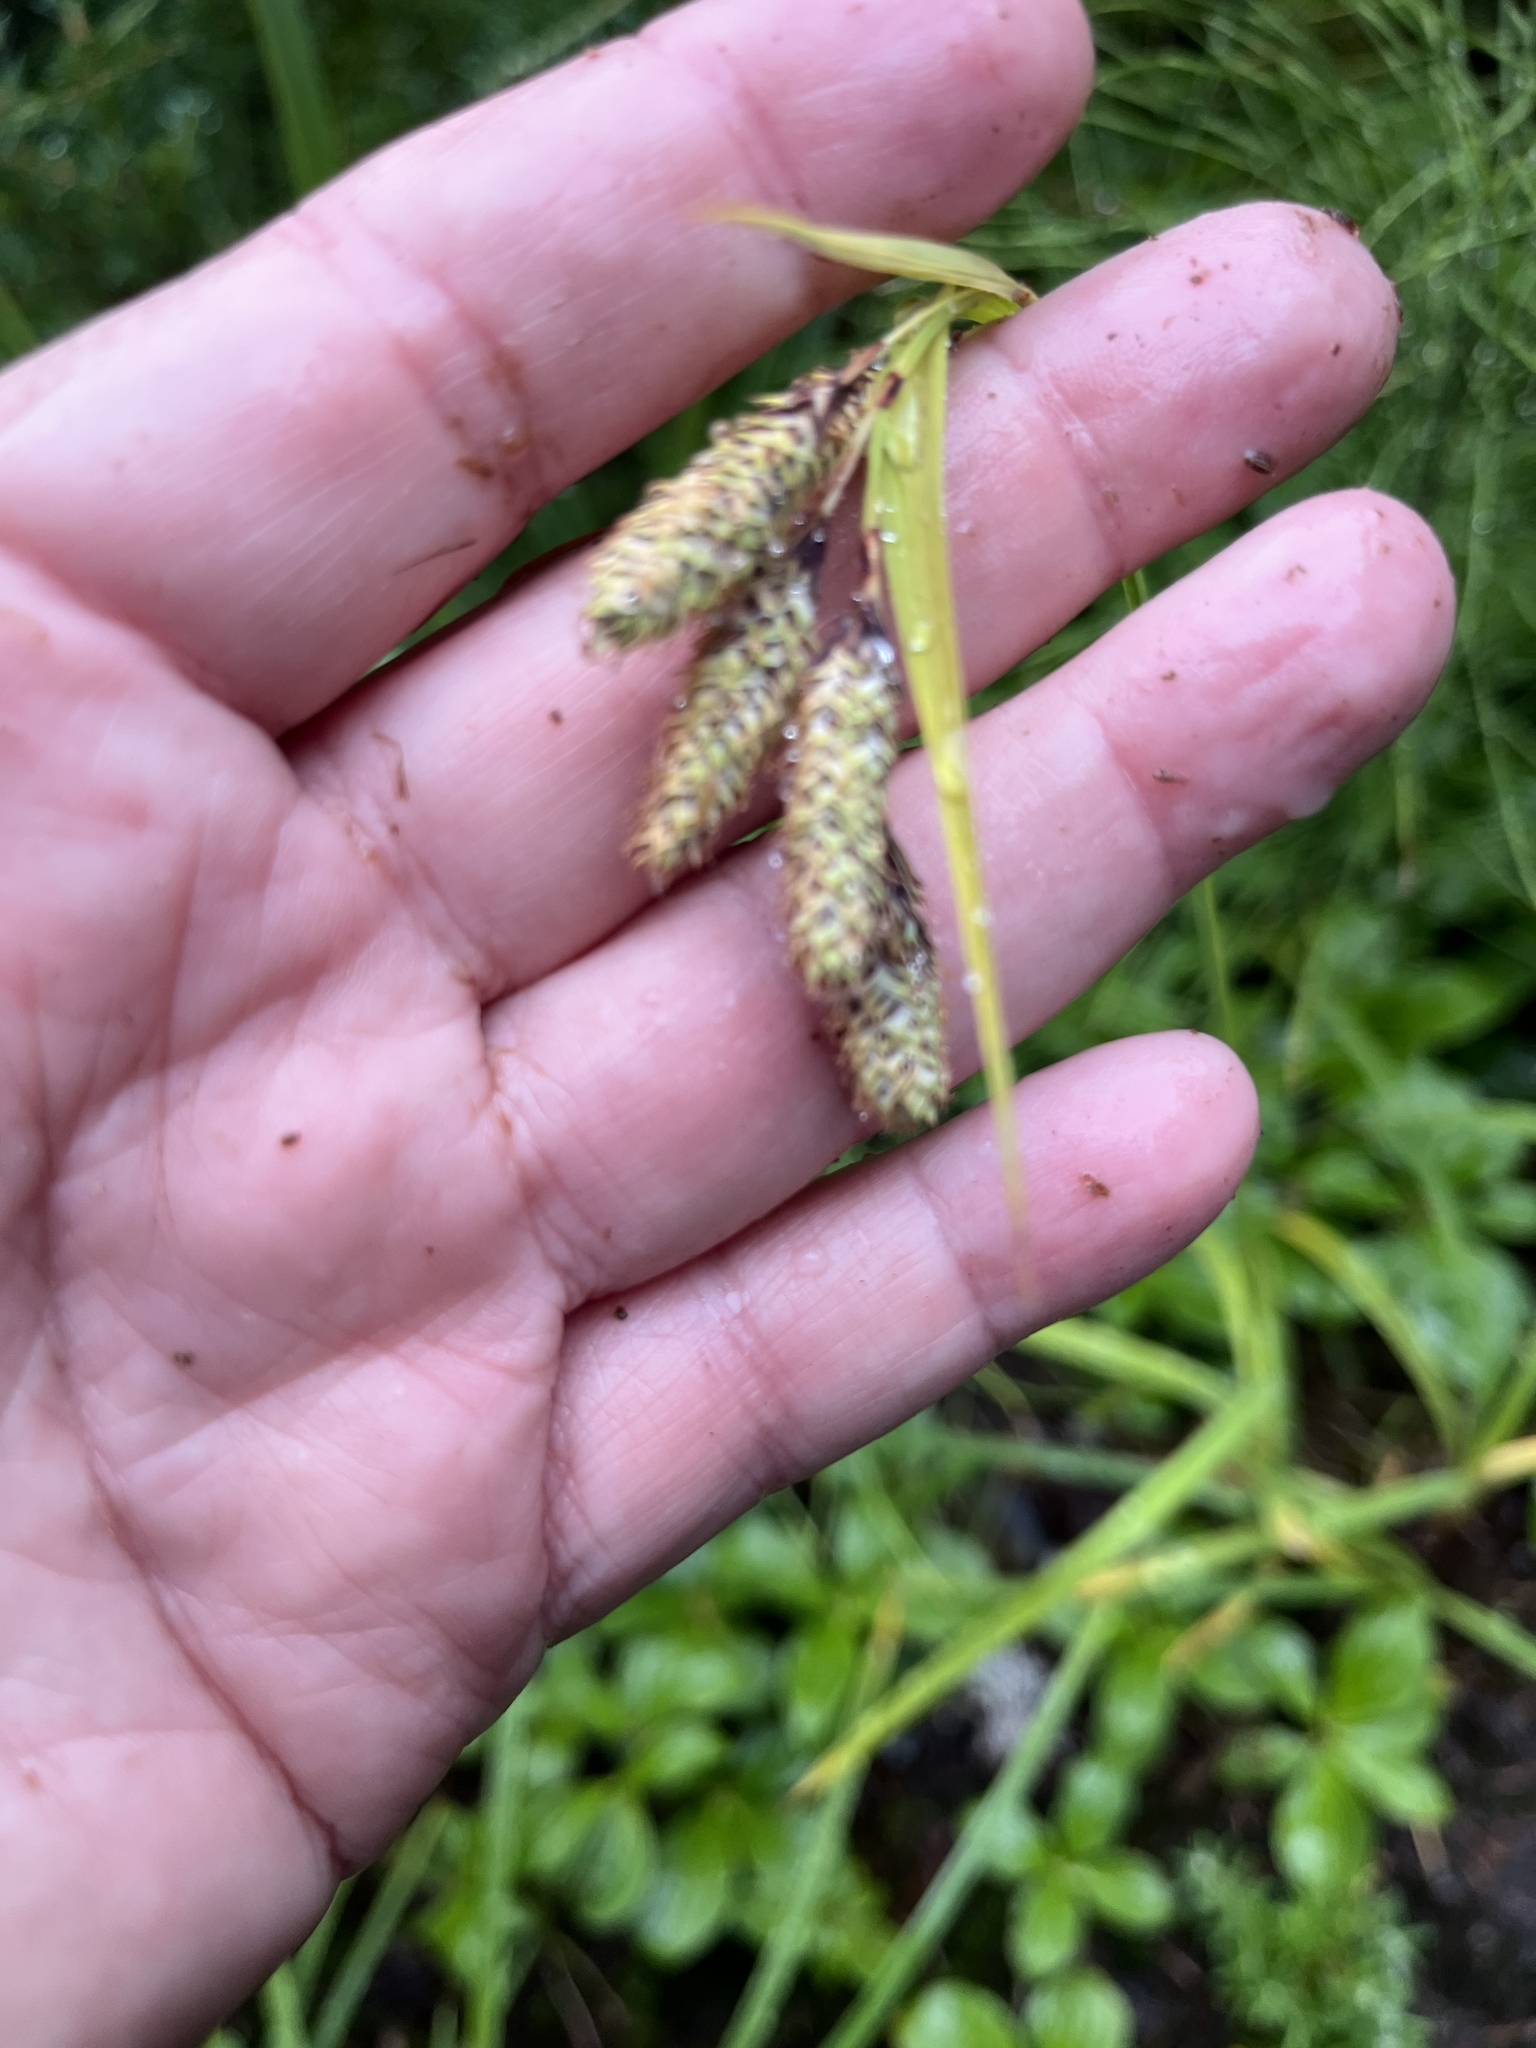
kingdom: Plantae
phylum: Tracheophyta
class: Liliopsida
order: Poales
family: Cyperaceae
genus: Carex
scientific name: Carex mertensii
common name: Mertens' sedge
